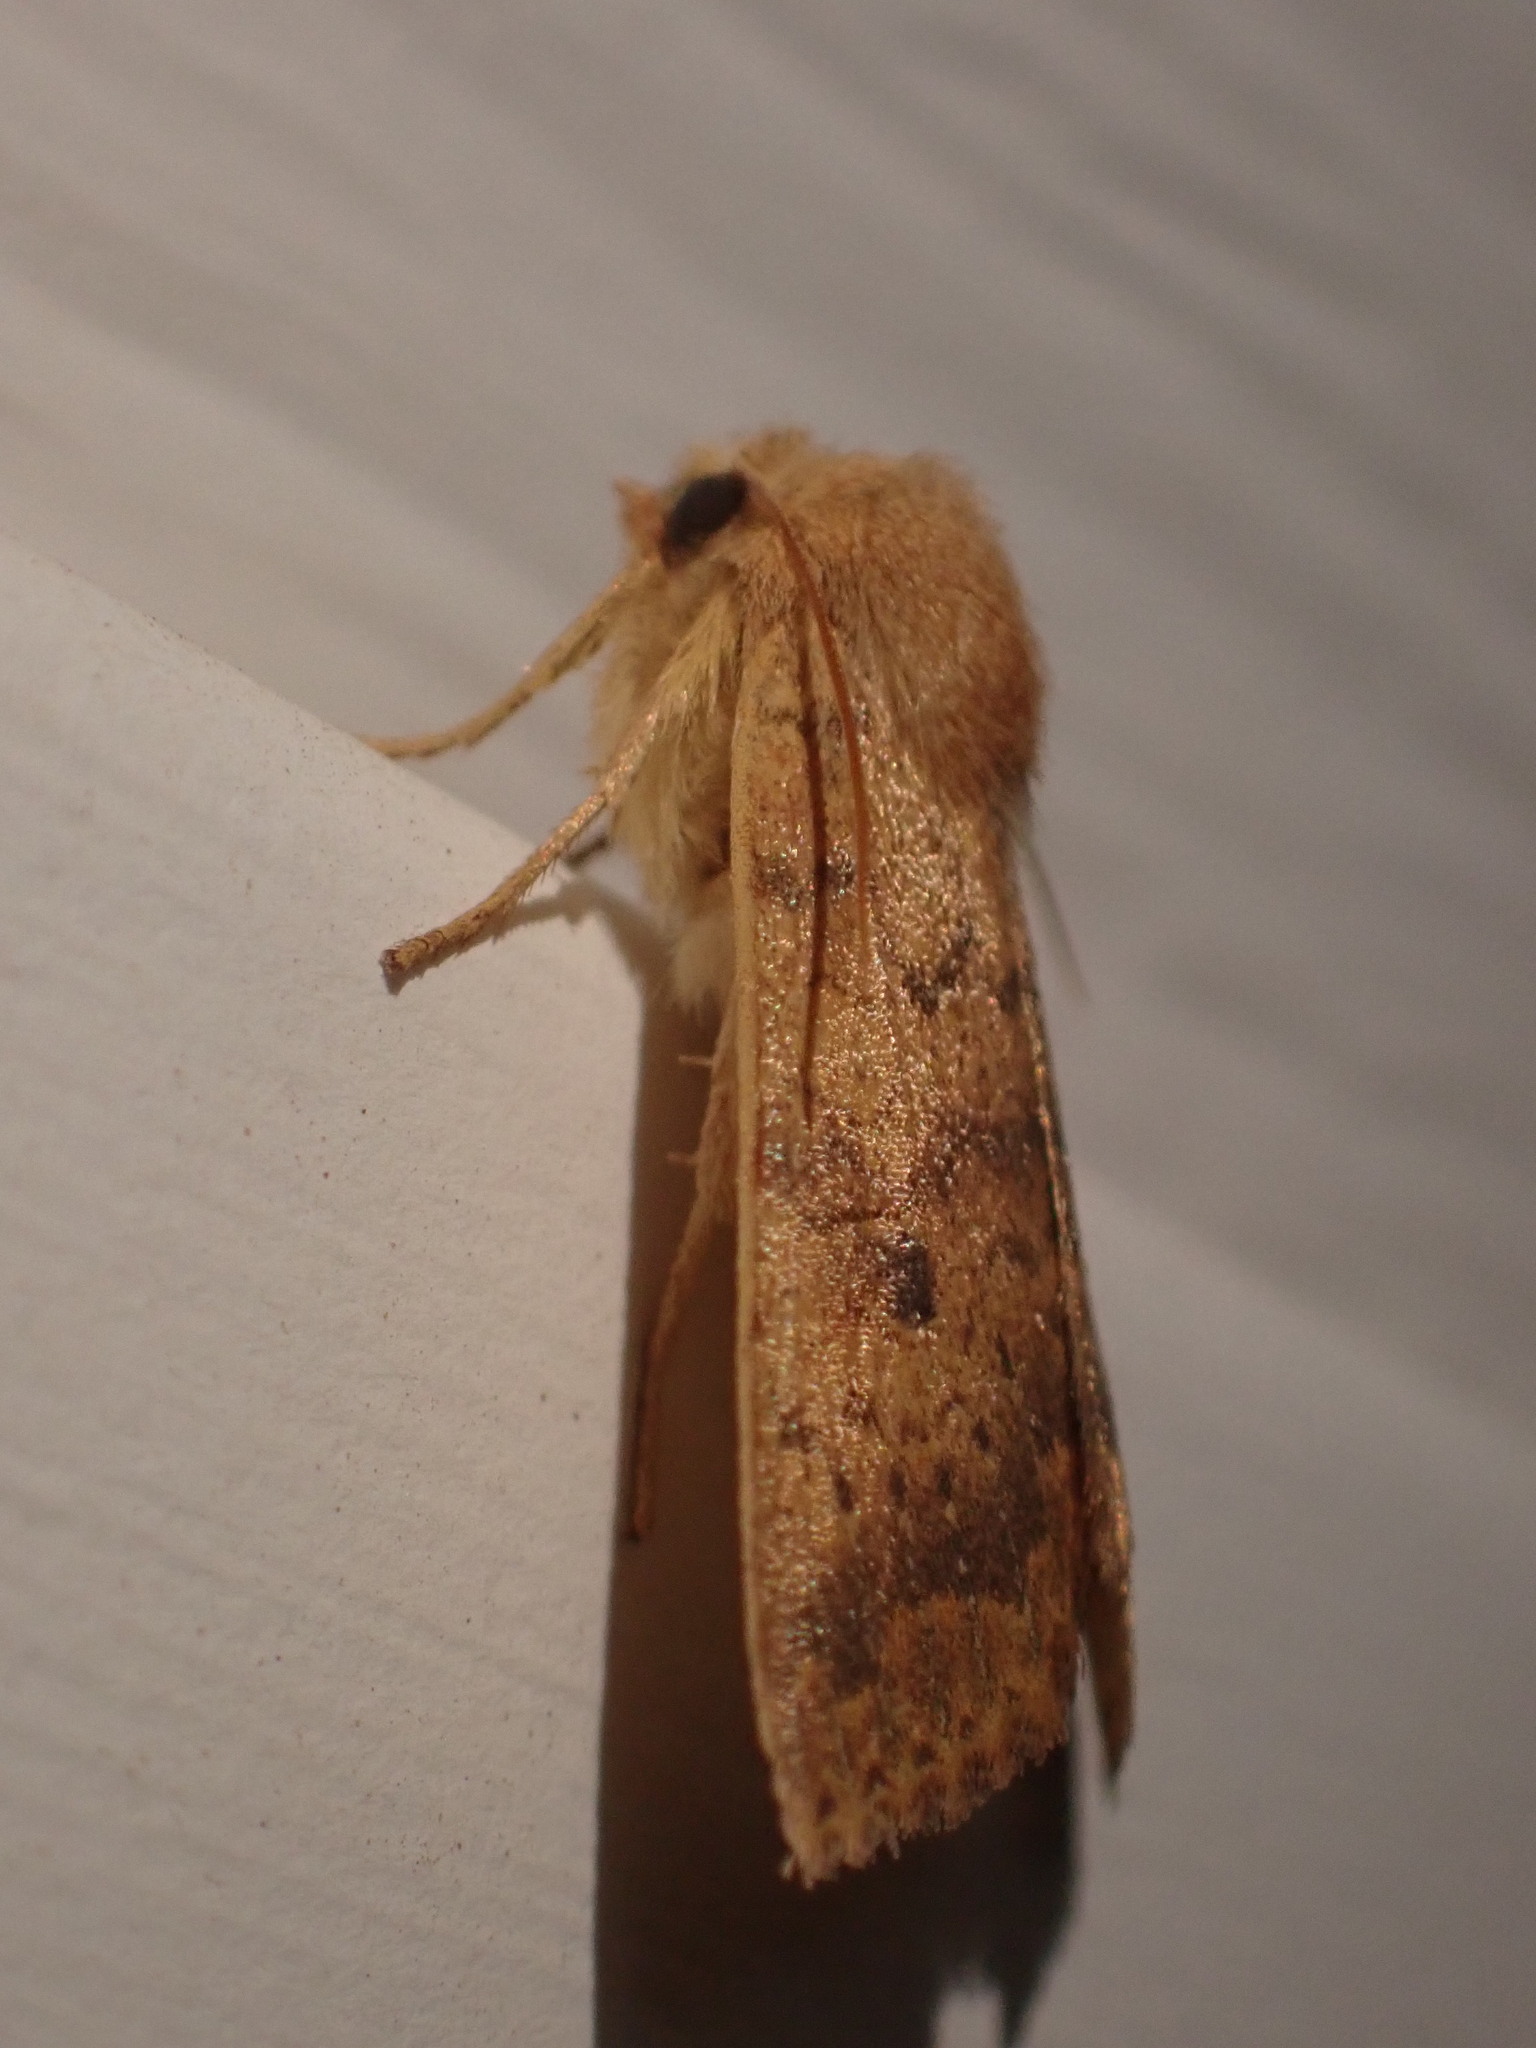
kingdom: Animalia
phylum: Arthropoda
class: Insecta
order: Lepidoptera
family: Noctuidae
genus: Agrochola
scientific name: Agrochola bicolorago
